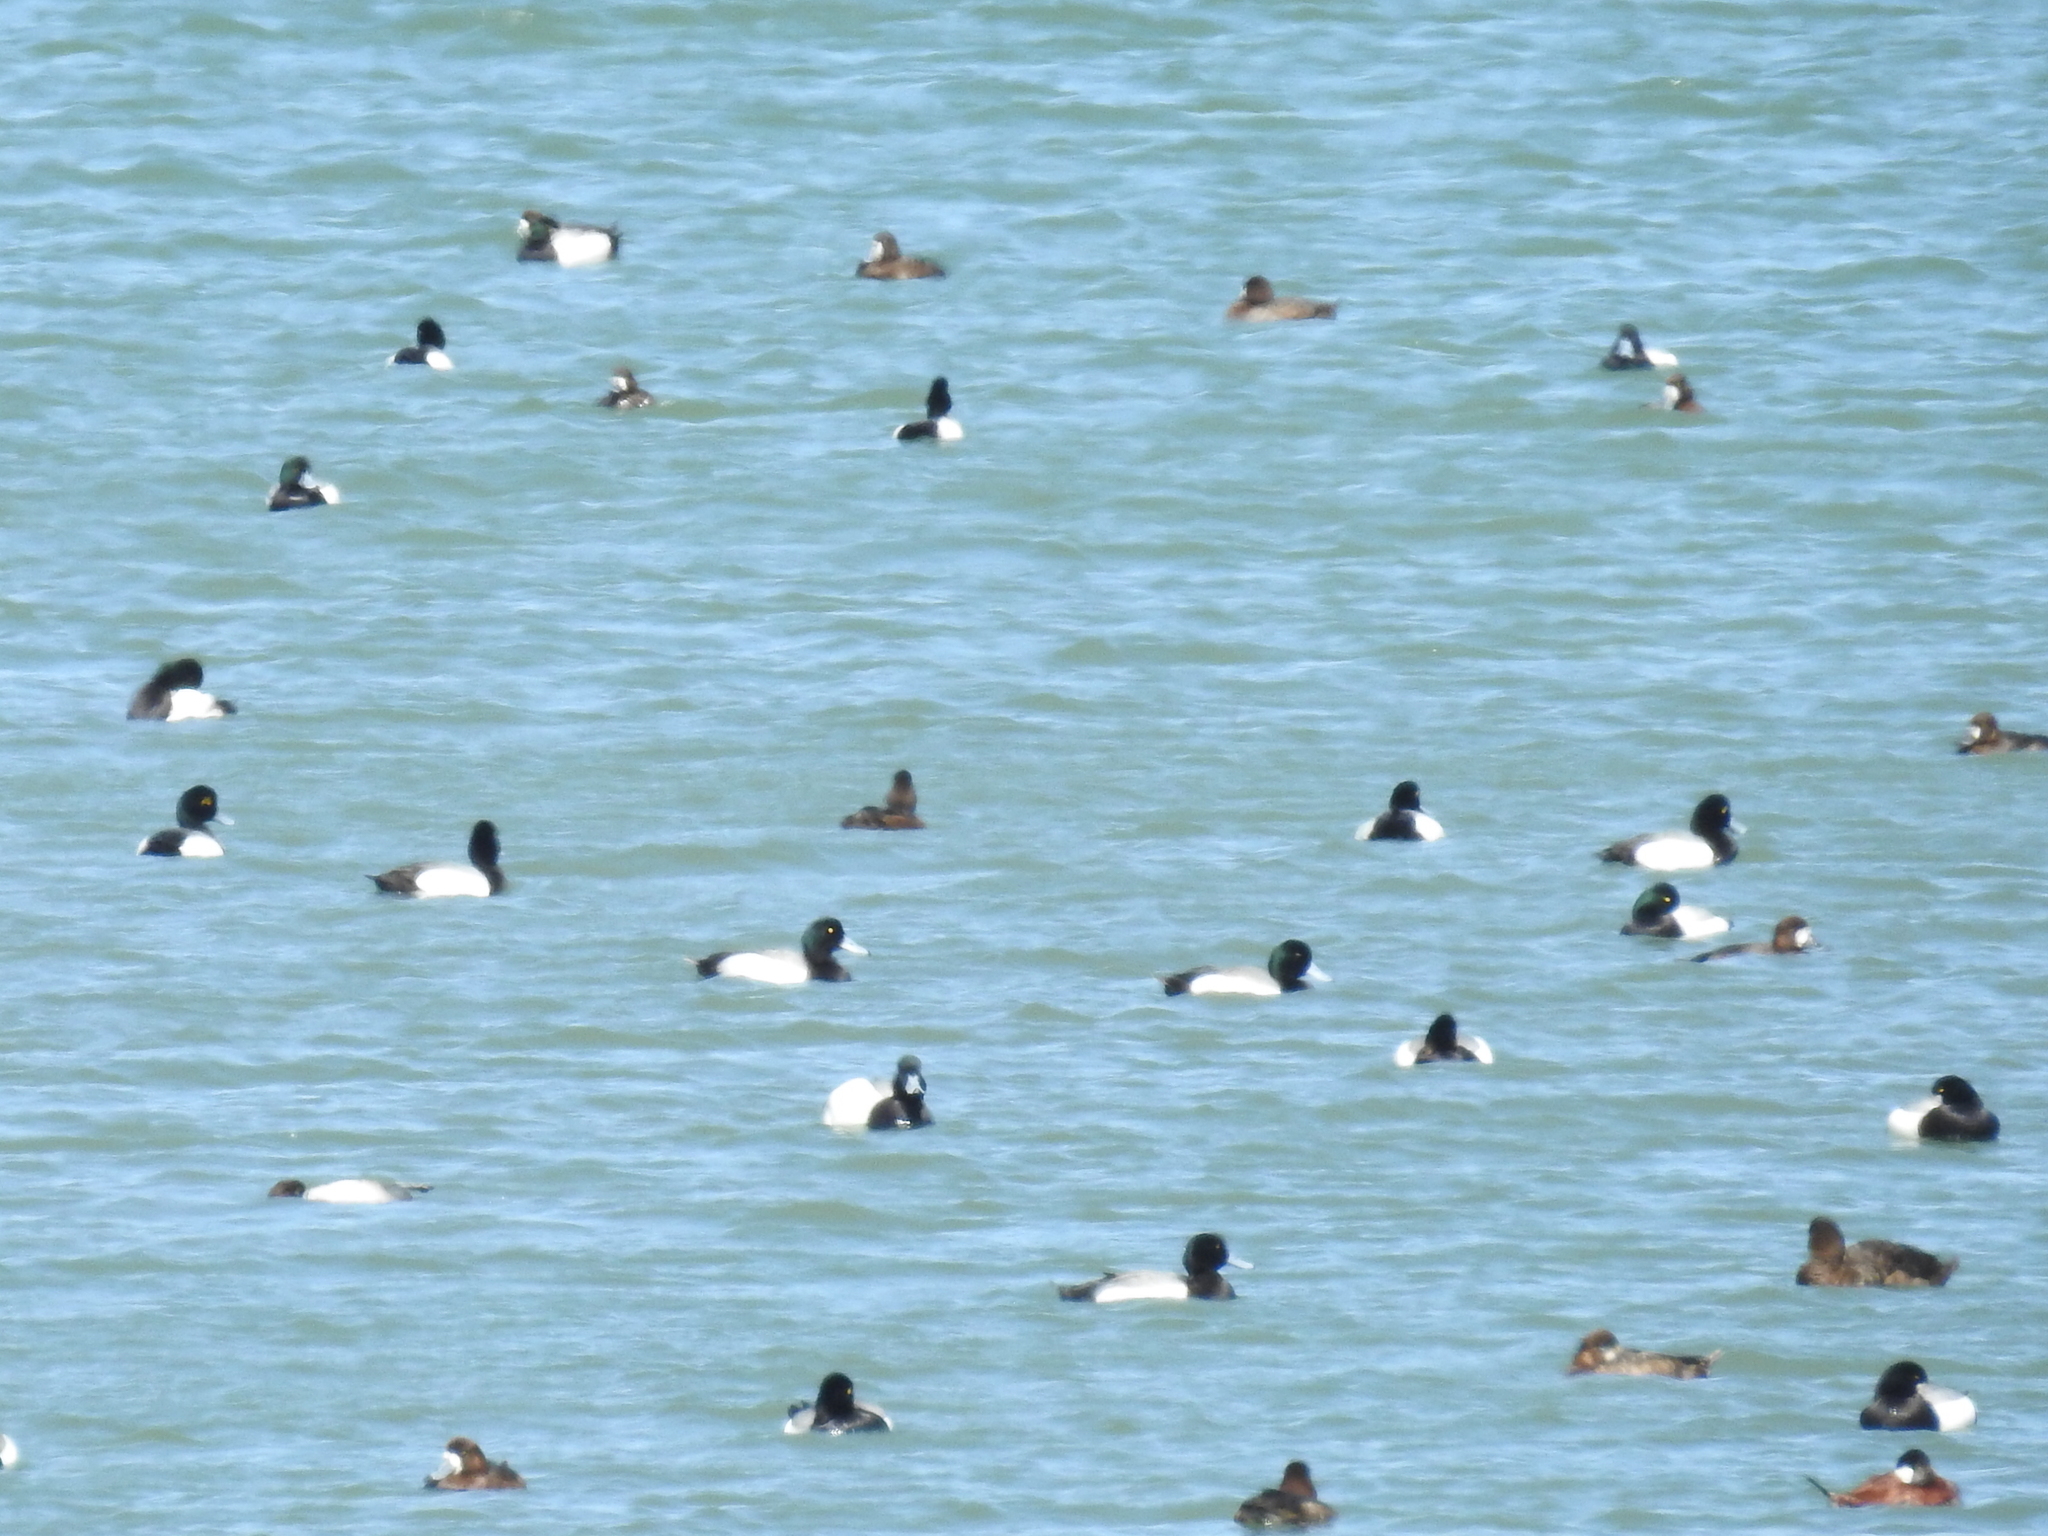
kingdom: Animalia
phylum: Chordata
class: Aves
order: Anseriformes
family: Anatidae
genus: Aythya
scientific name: Aythya marila
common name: Greater scaup
